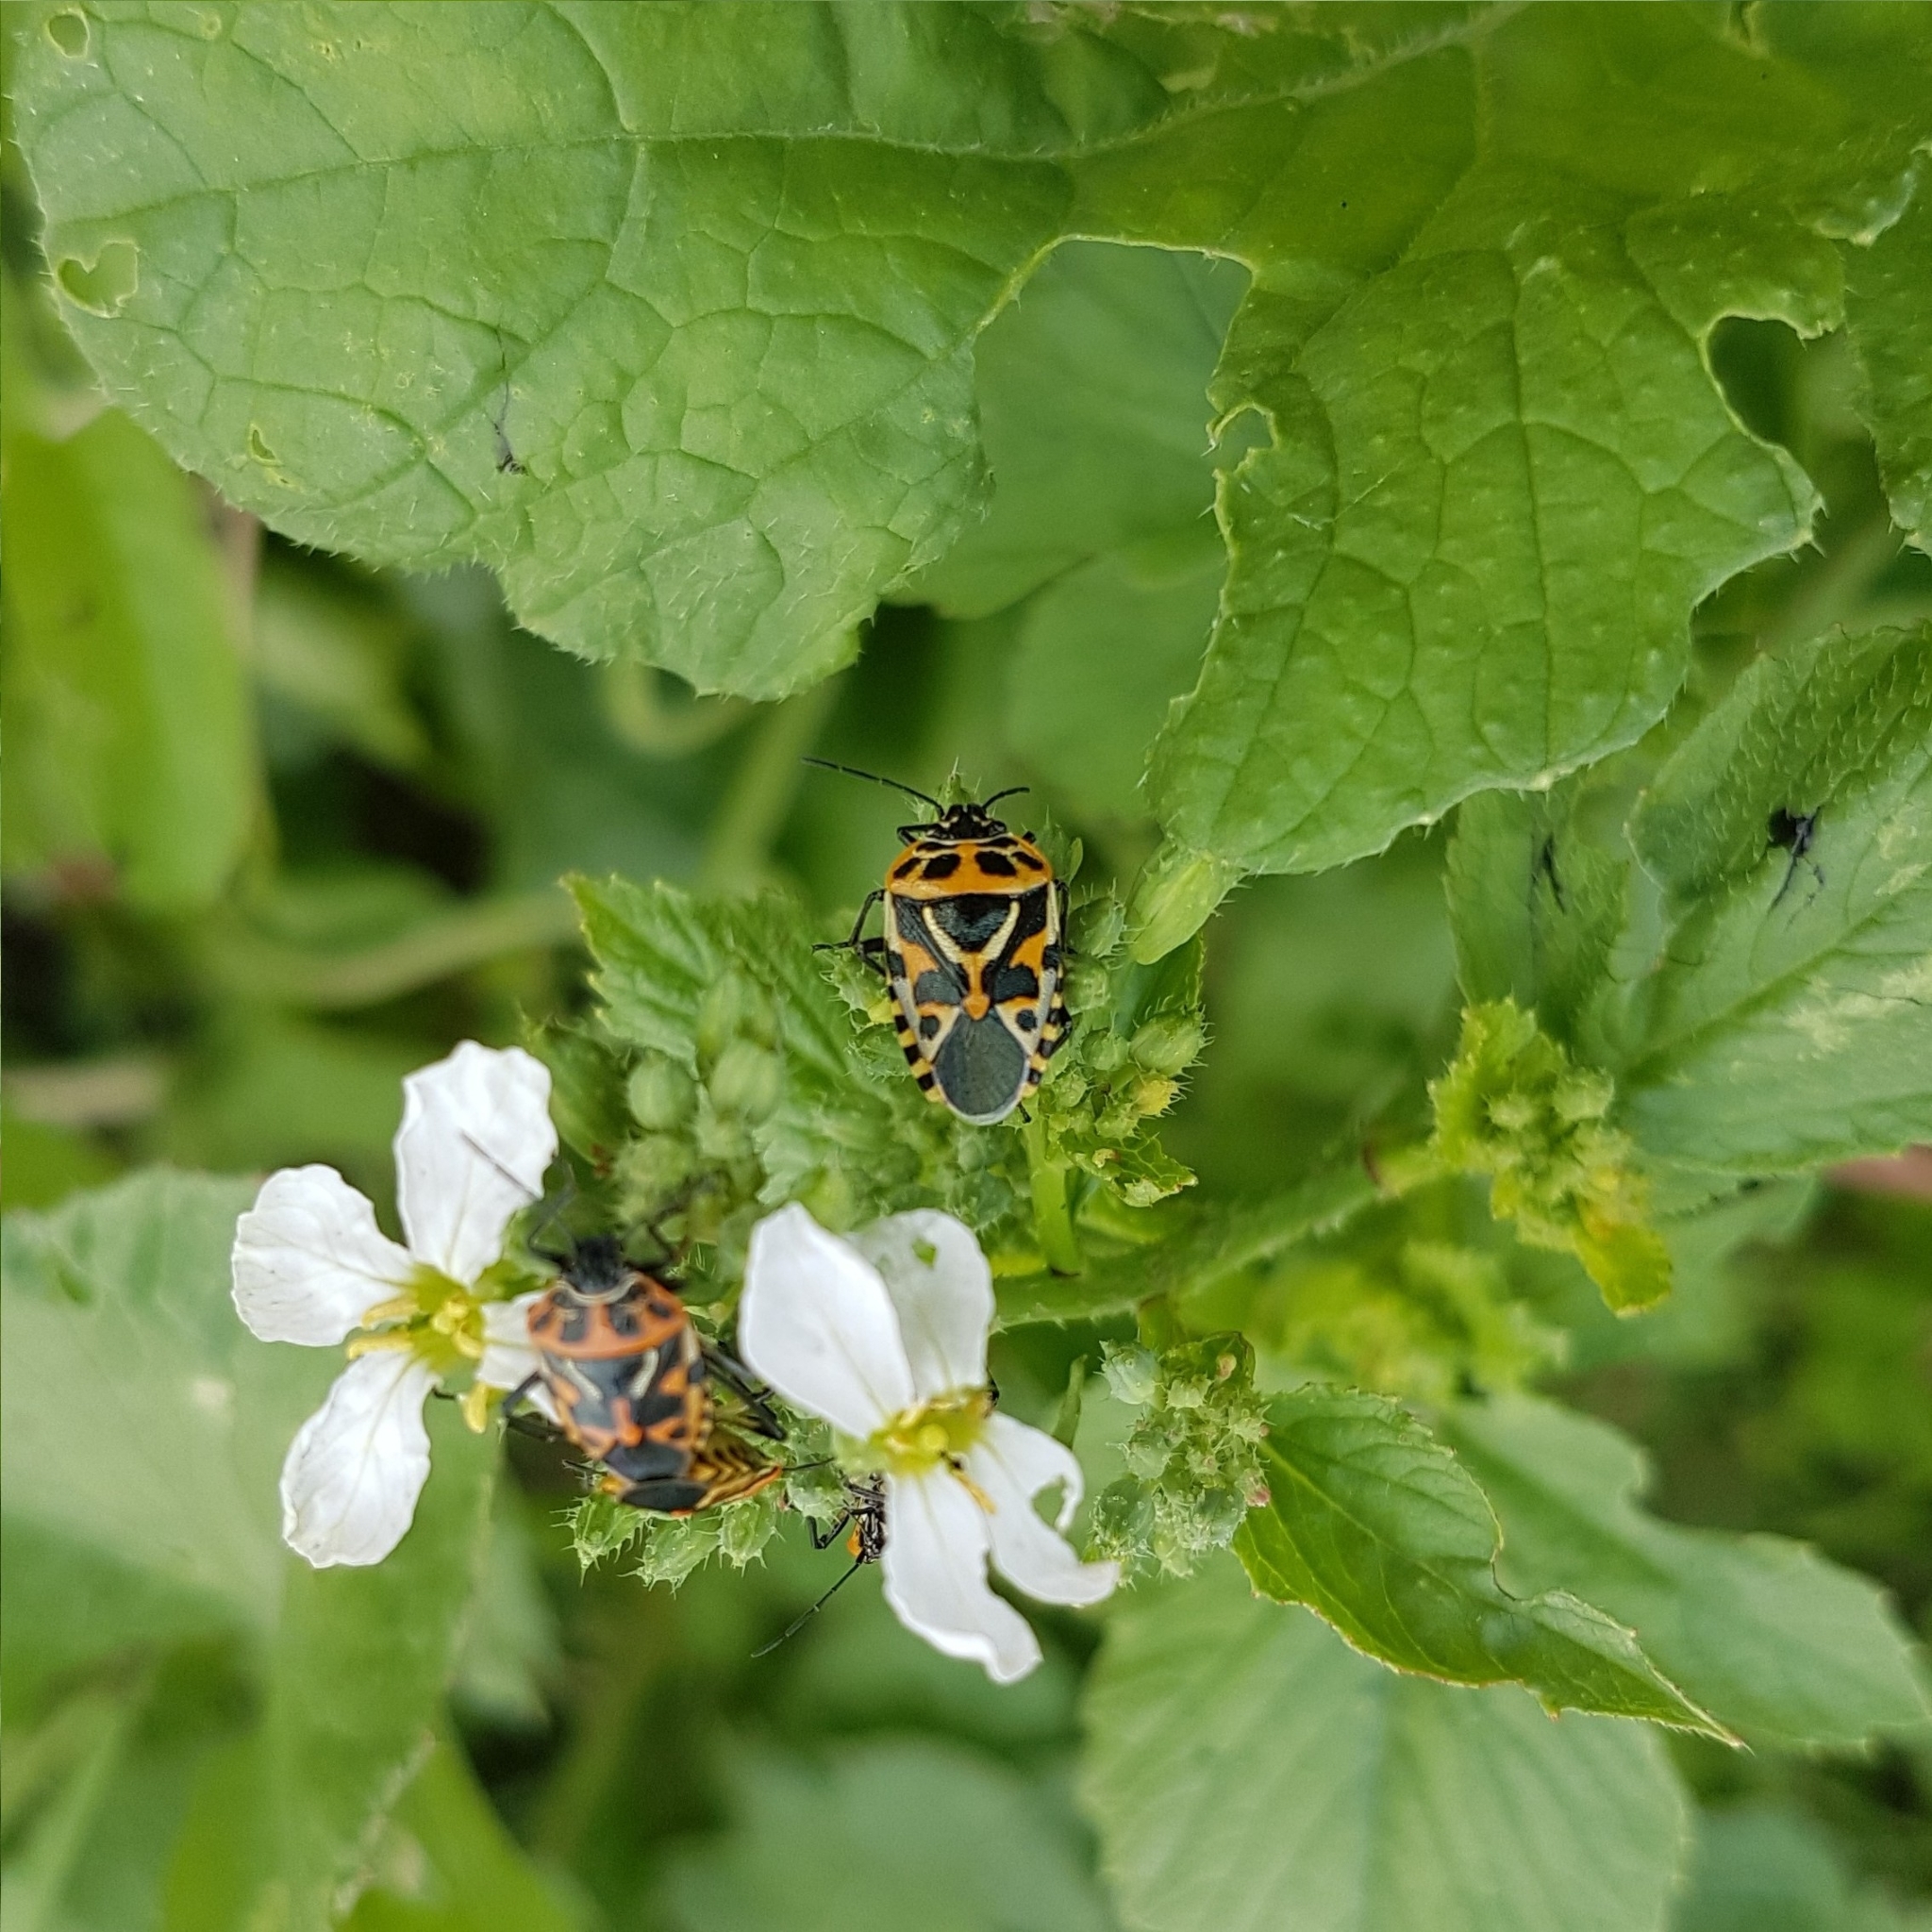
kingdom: Animalia
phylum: Arthropoda
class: Insecta
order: Hemiptera
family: Pentatomidae
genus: Eurydema
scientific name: Eurydema ventralis
